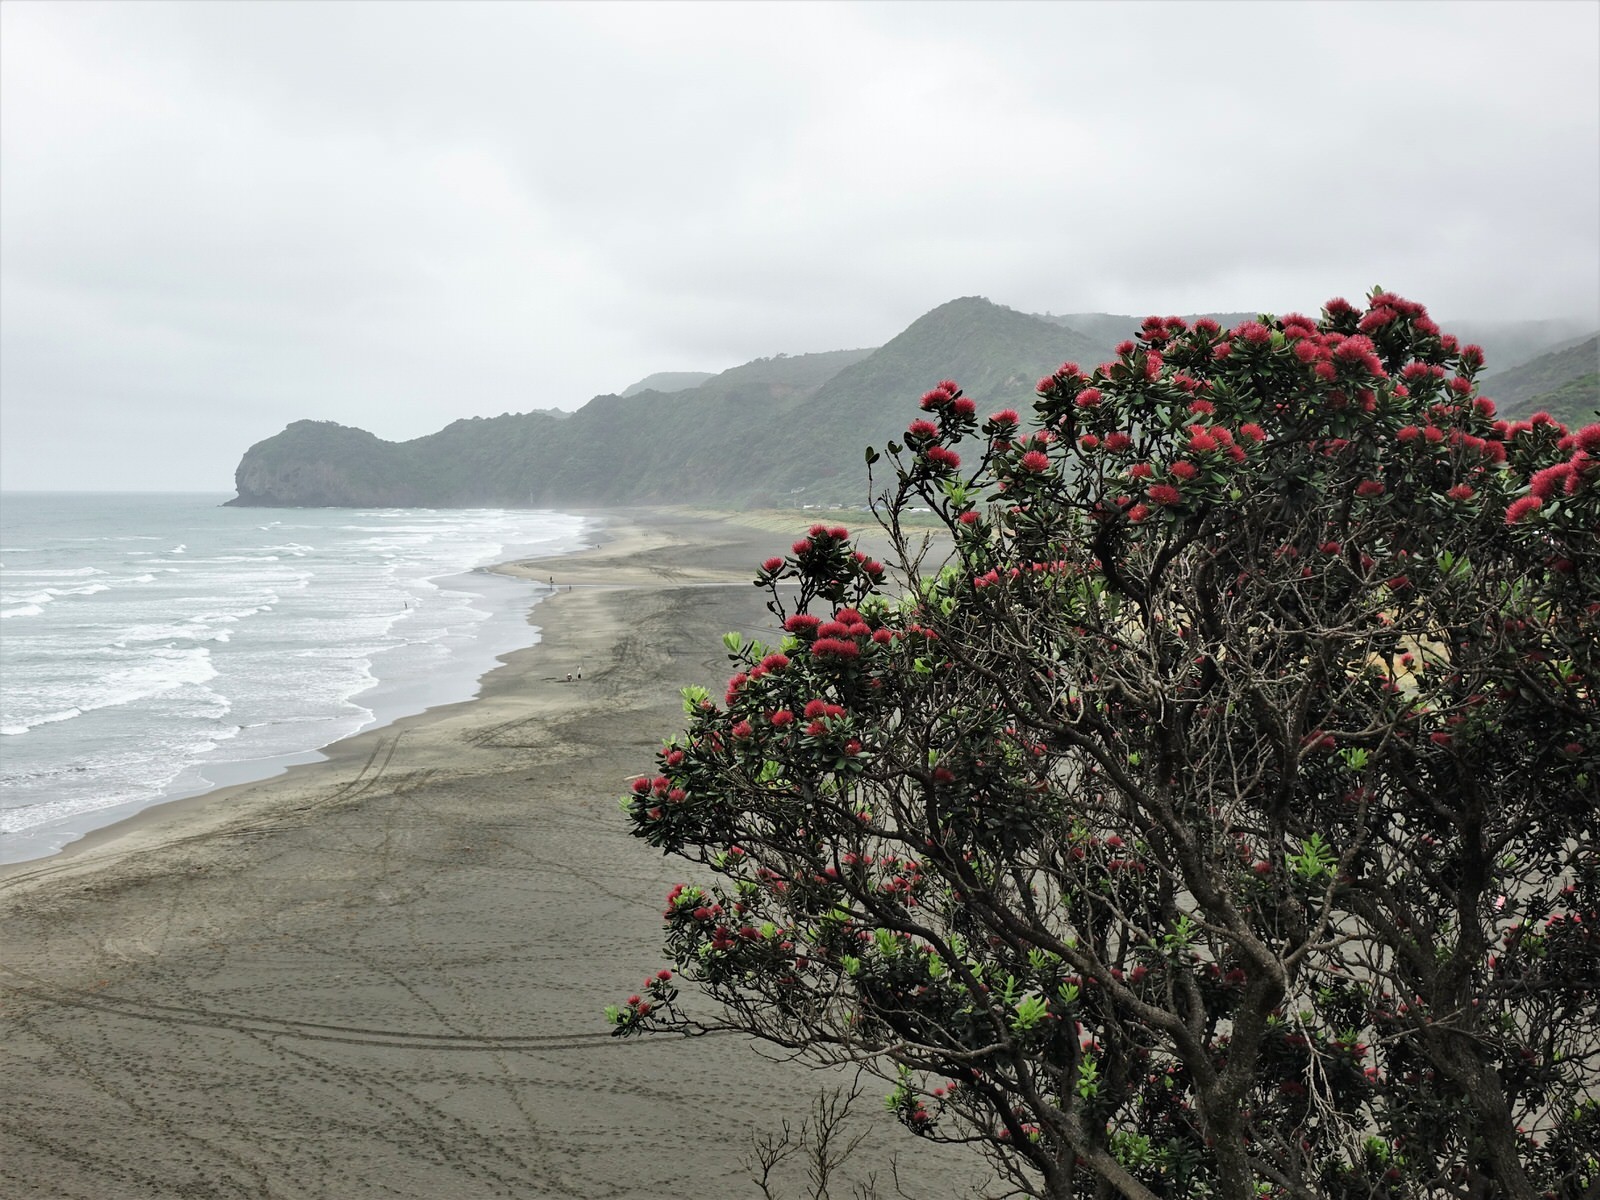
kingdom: Plantae
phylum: Tracheophyta
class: Magnoliopsida
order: Myrtales
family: Myrtaceae
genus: Metrosideros
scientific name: Metrosideros excelsa
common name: New zealand christmastree
